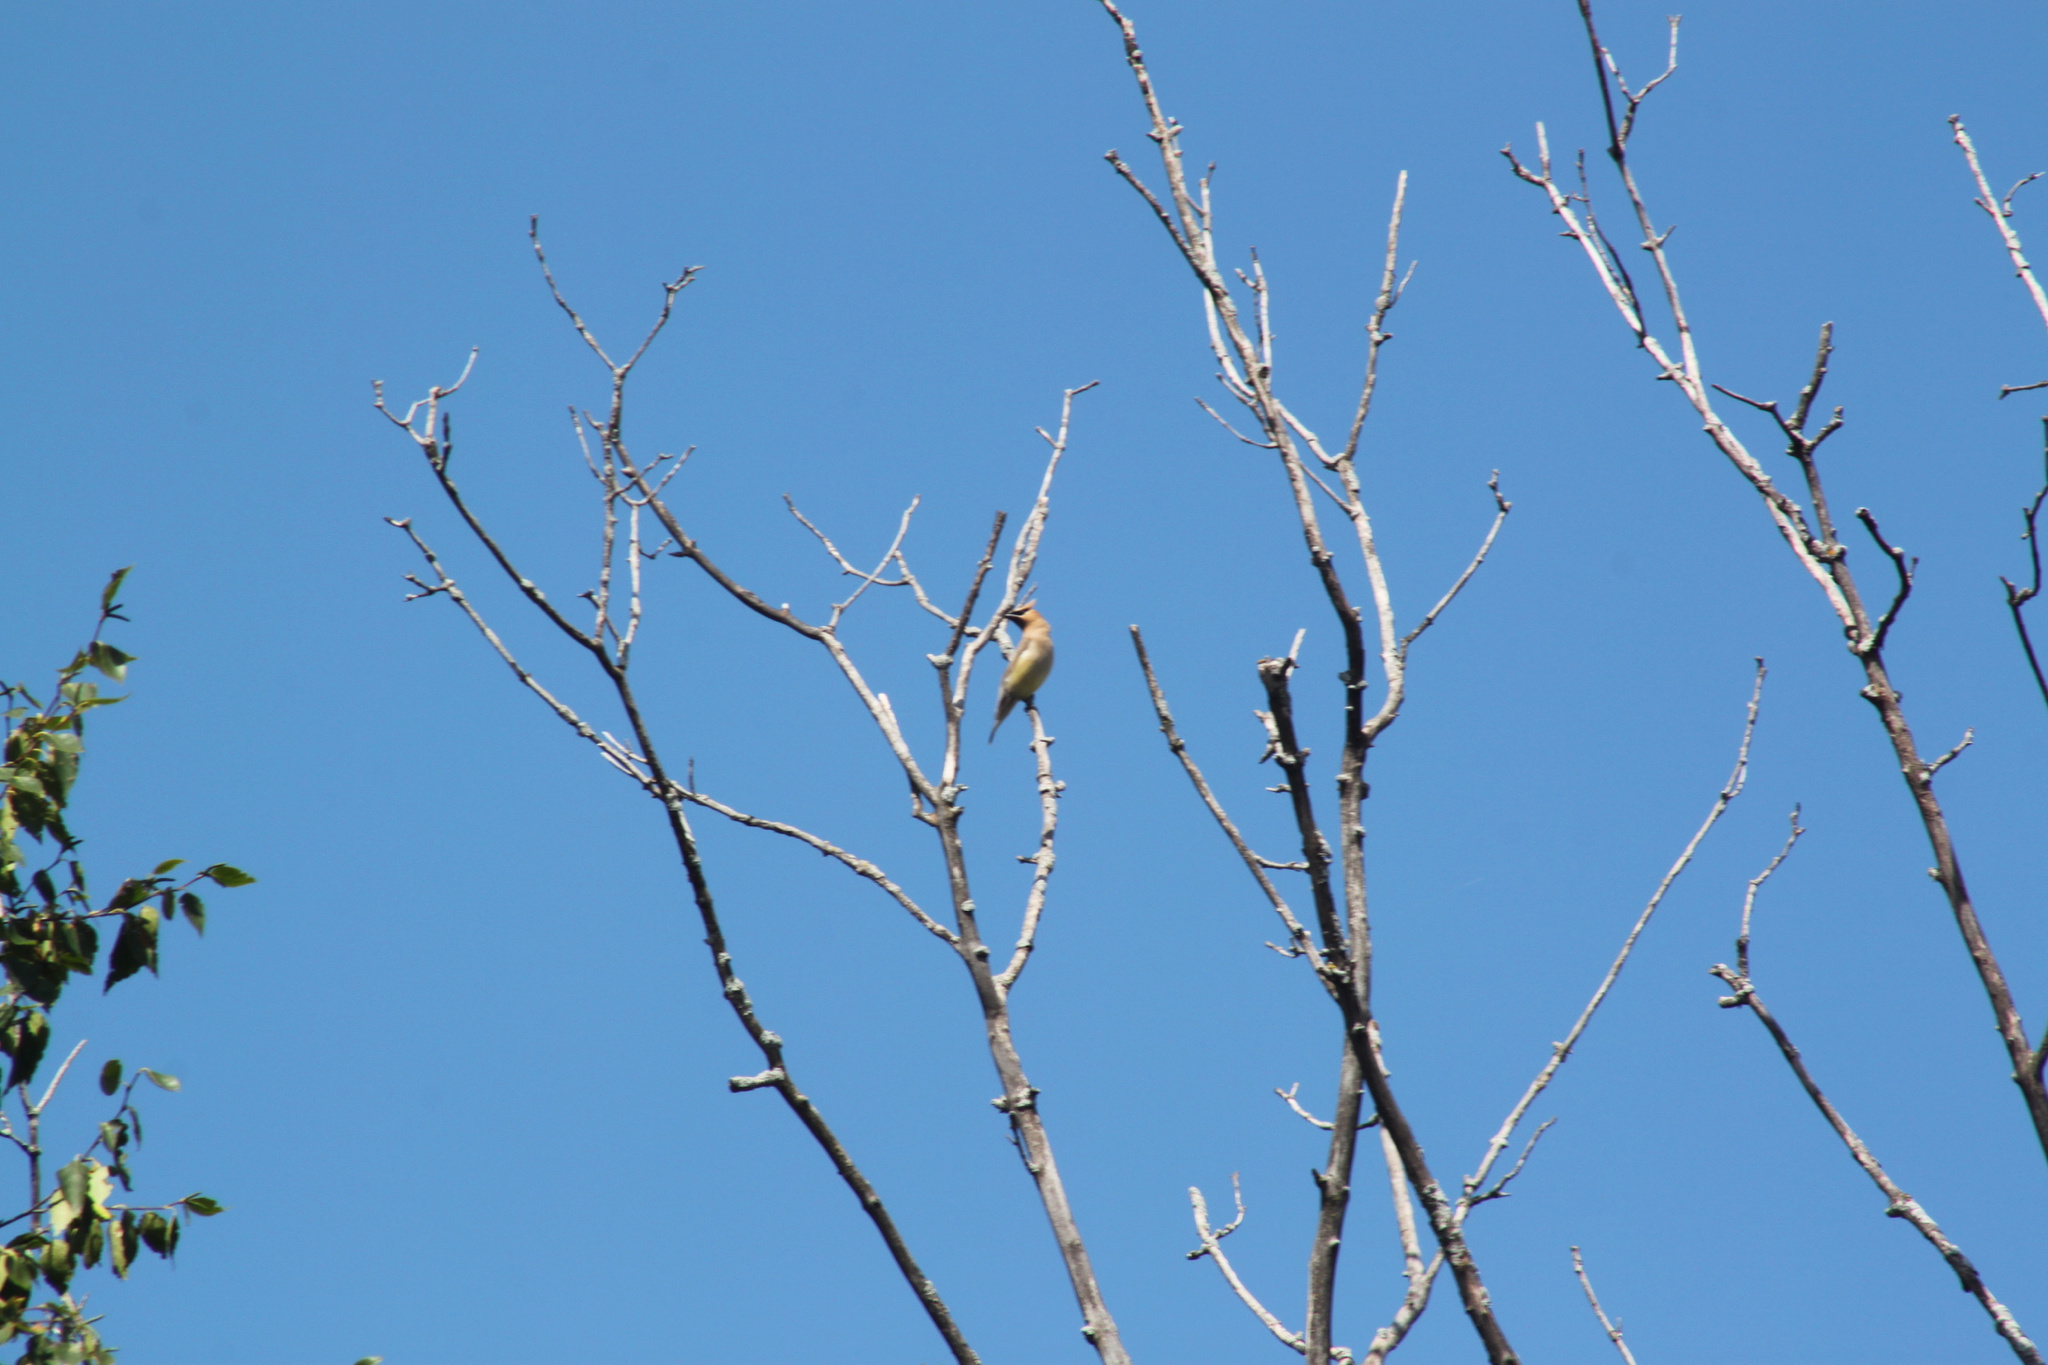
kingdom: Animalia
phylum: Chordata
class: Aves
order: Passeriformes
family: Bombycillidae
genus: Bombycilla
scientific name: Bombycilla cedrorum
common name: Cedar waxwing
